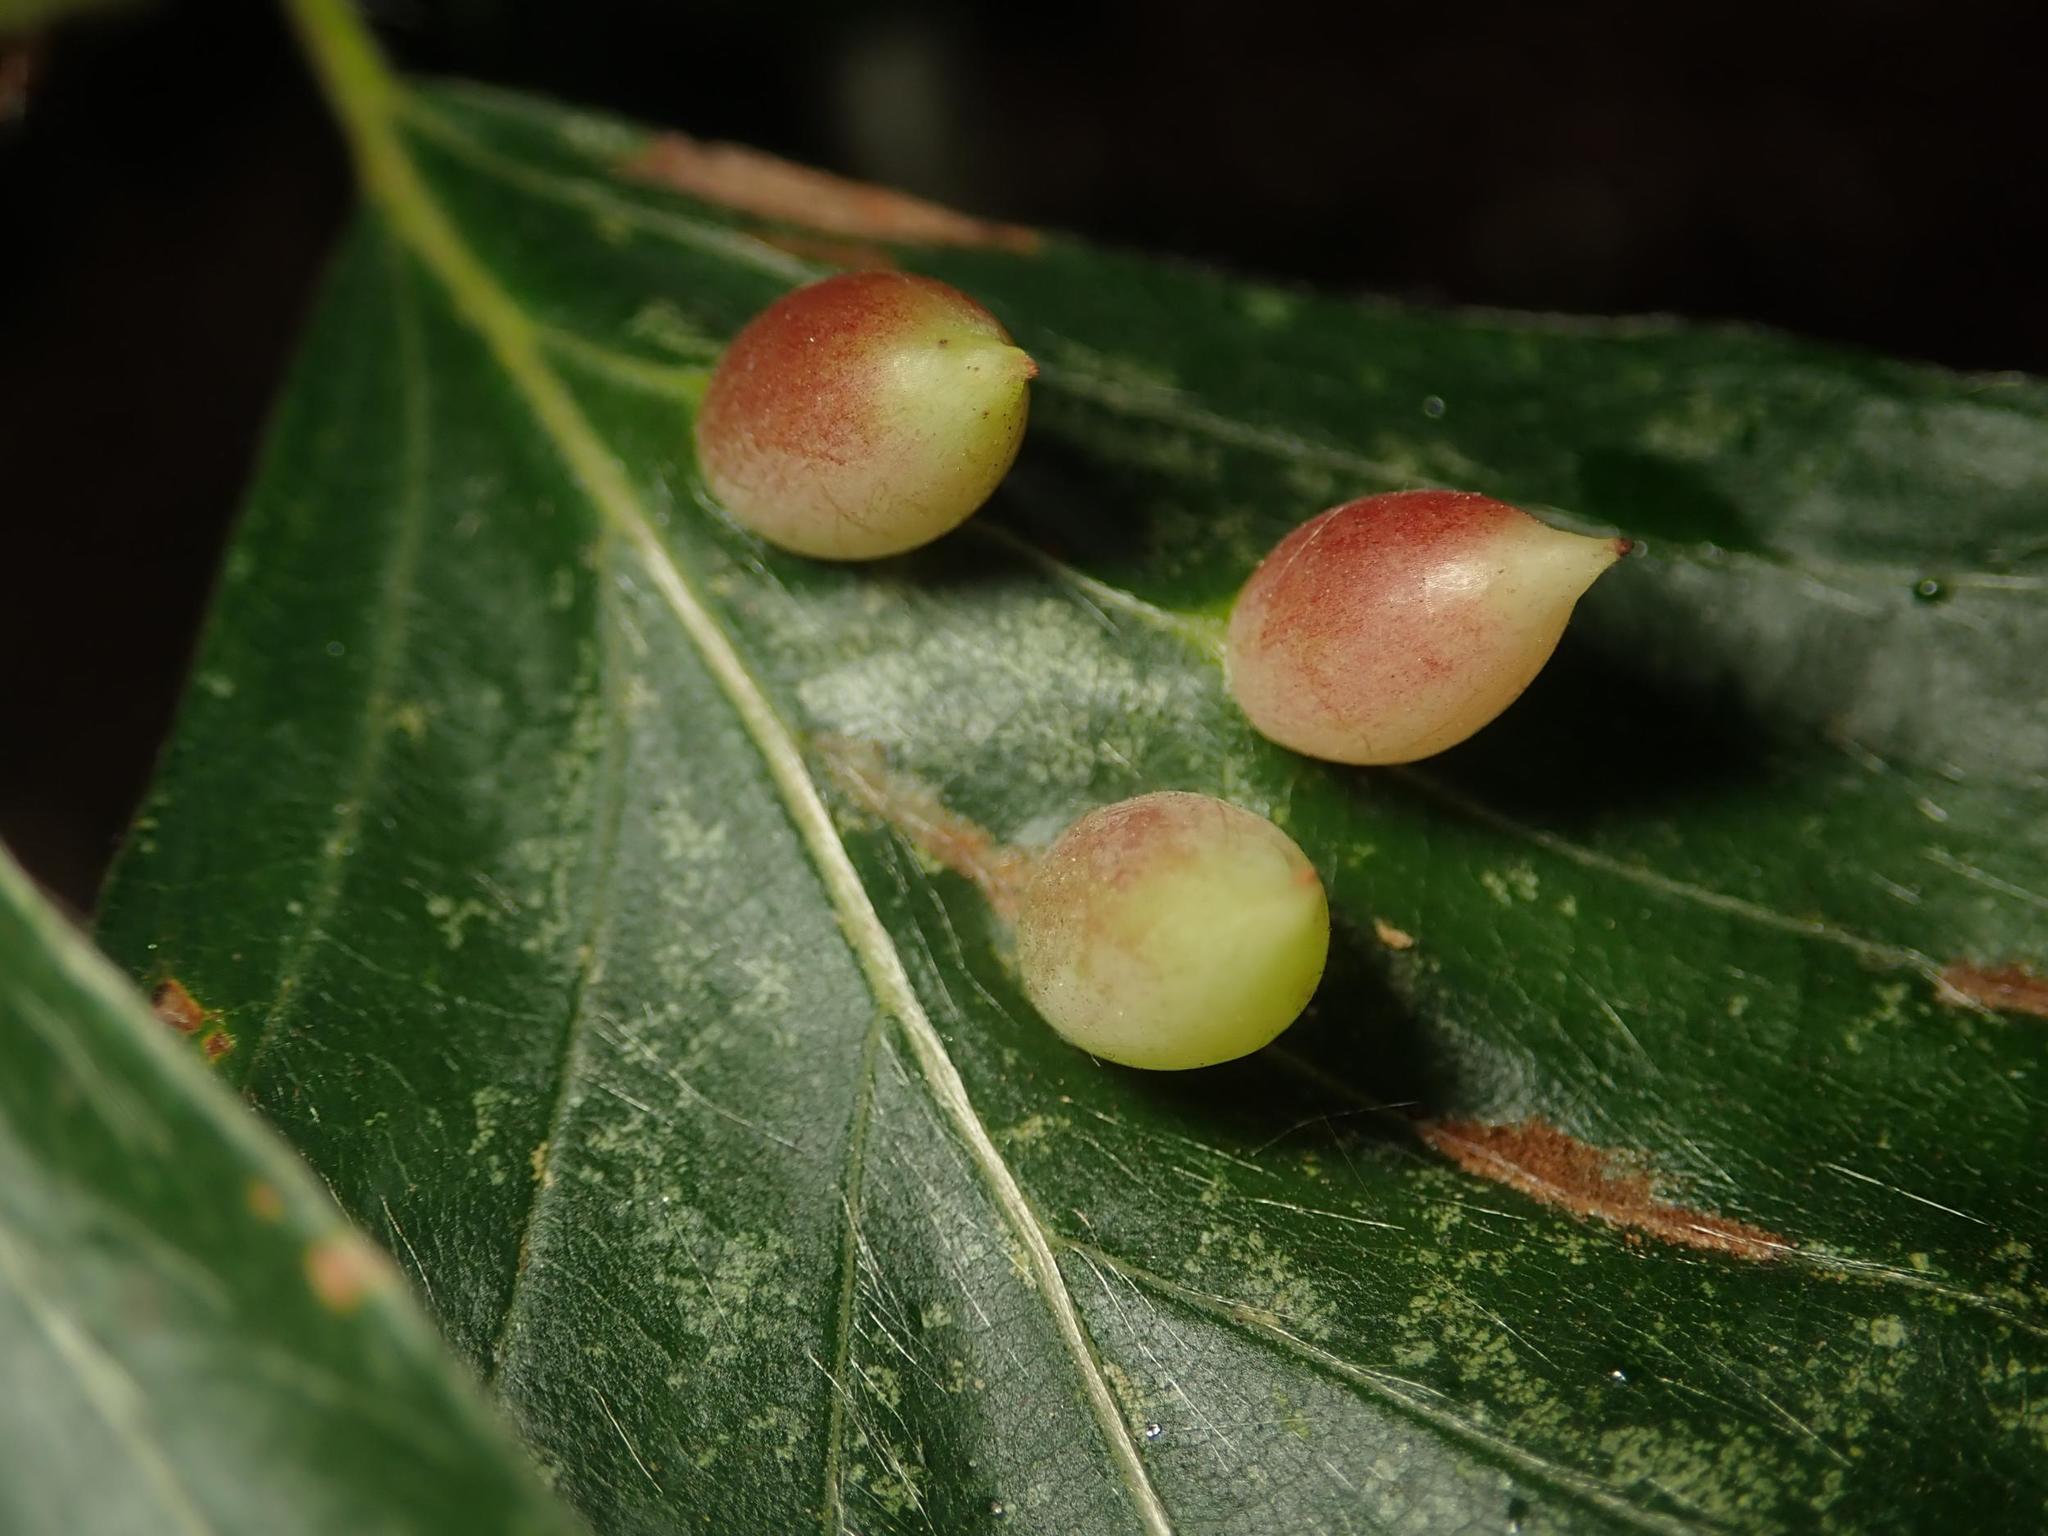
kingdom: Animalia
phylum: Arthropoda
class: Insecta
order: Diptera
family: Cecidomyiidae
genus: Mikiola
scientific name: Mikiola fagi
